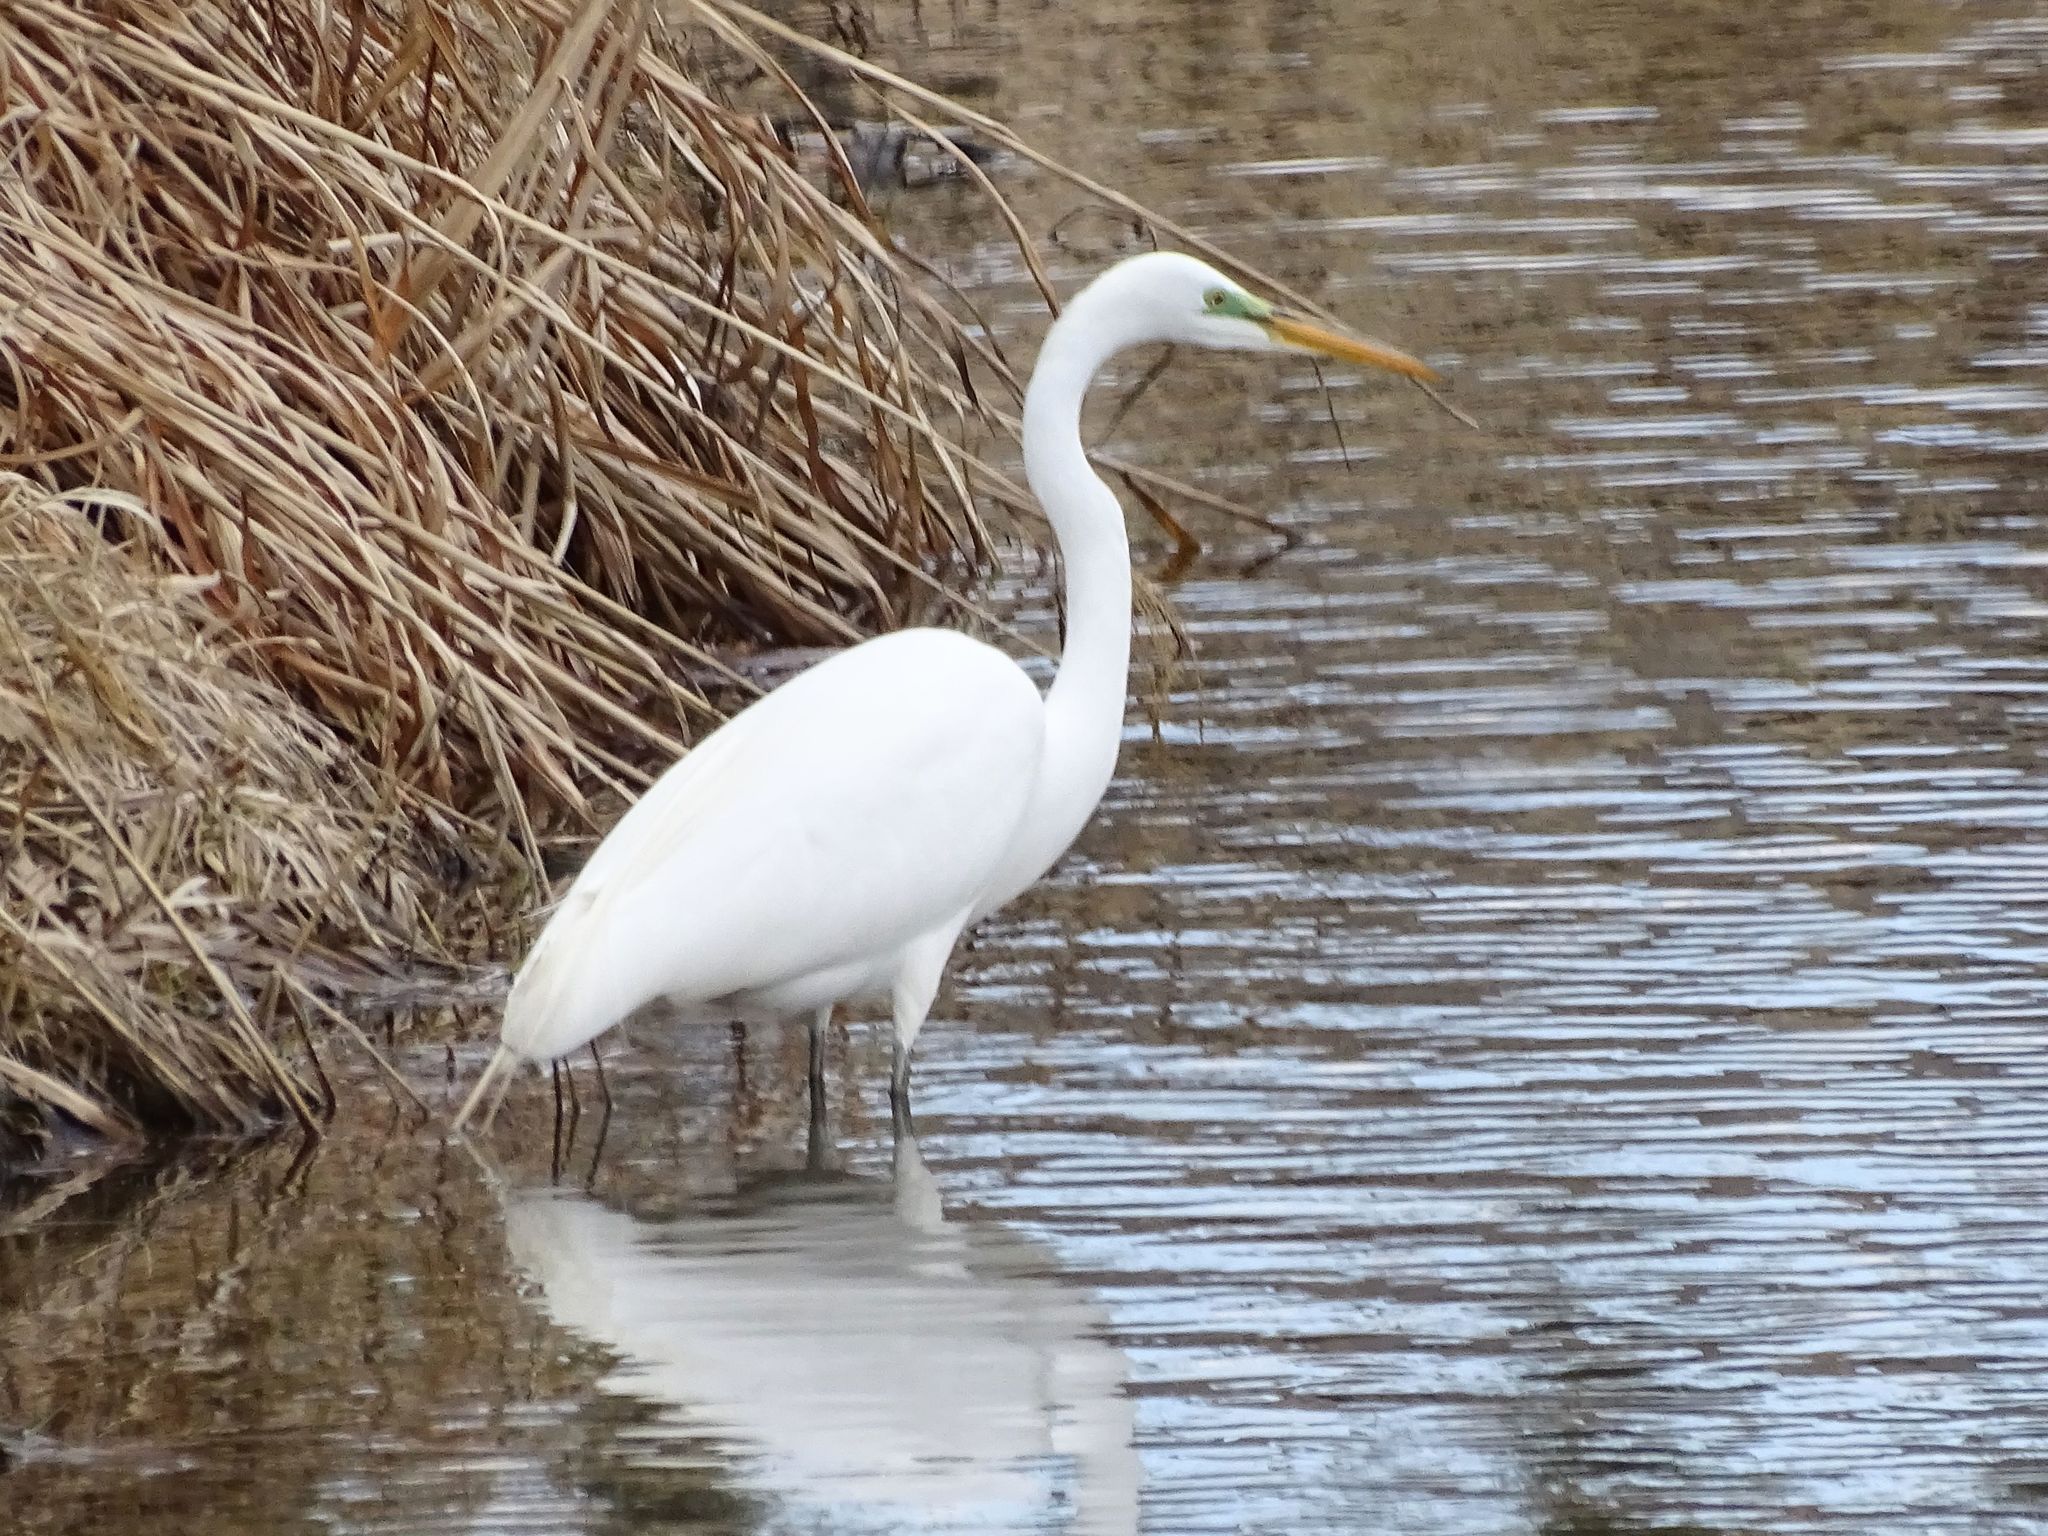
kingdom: Animalia
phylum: Chordata
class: Aves
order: Pelecaniformes
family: Ardeidae
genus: Ardea
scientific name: Ardea alba
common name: Great egret
